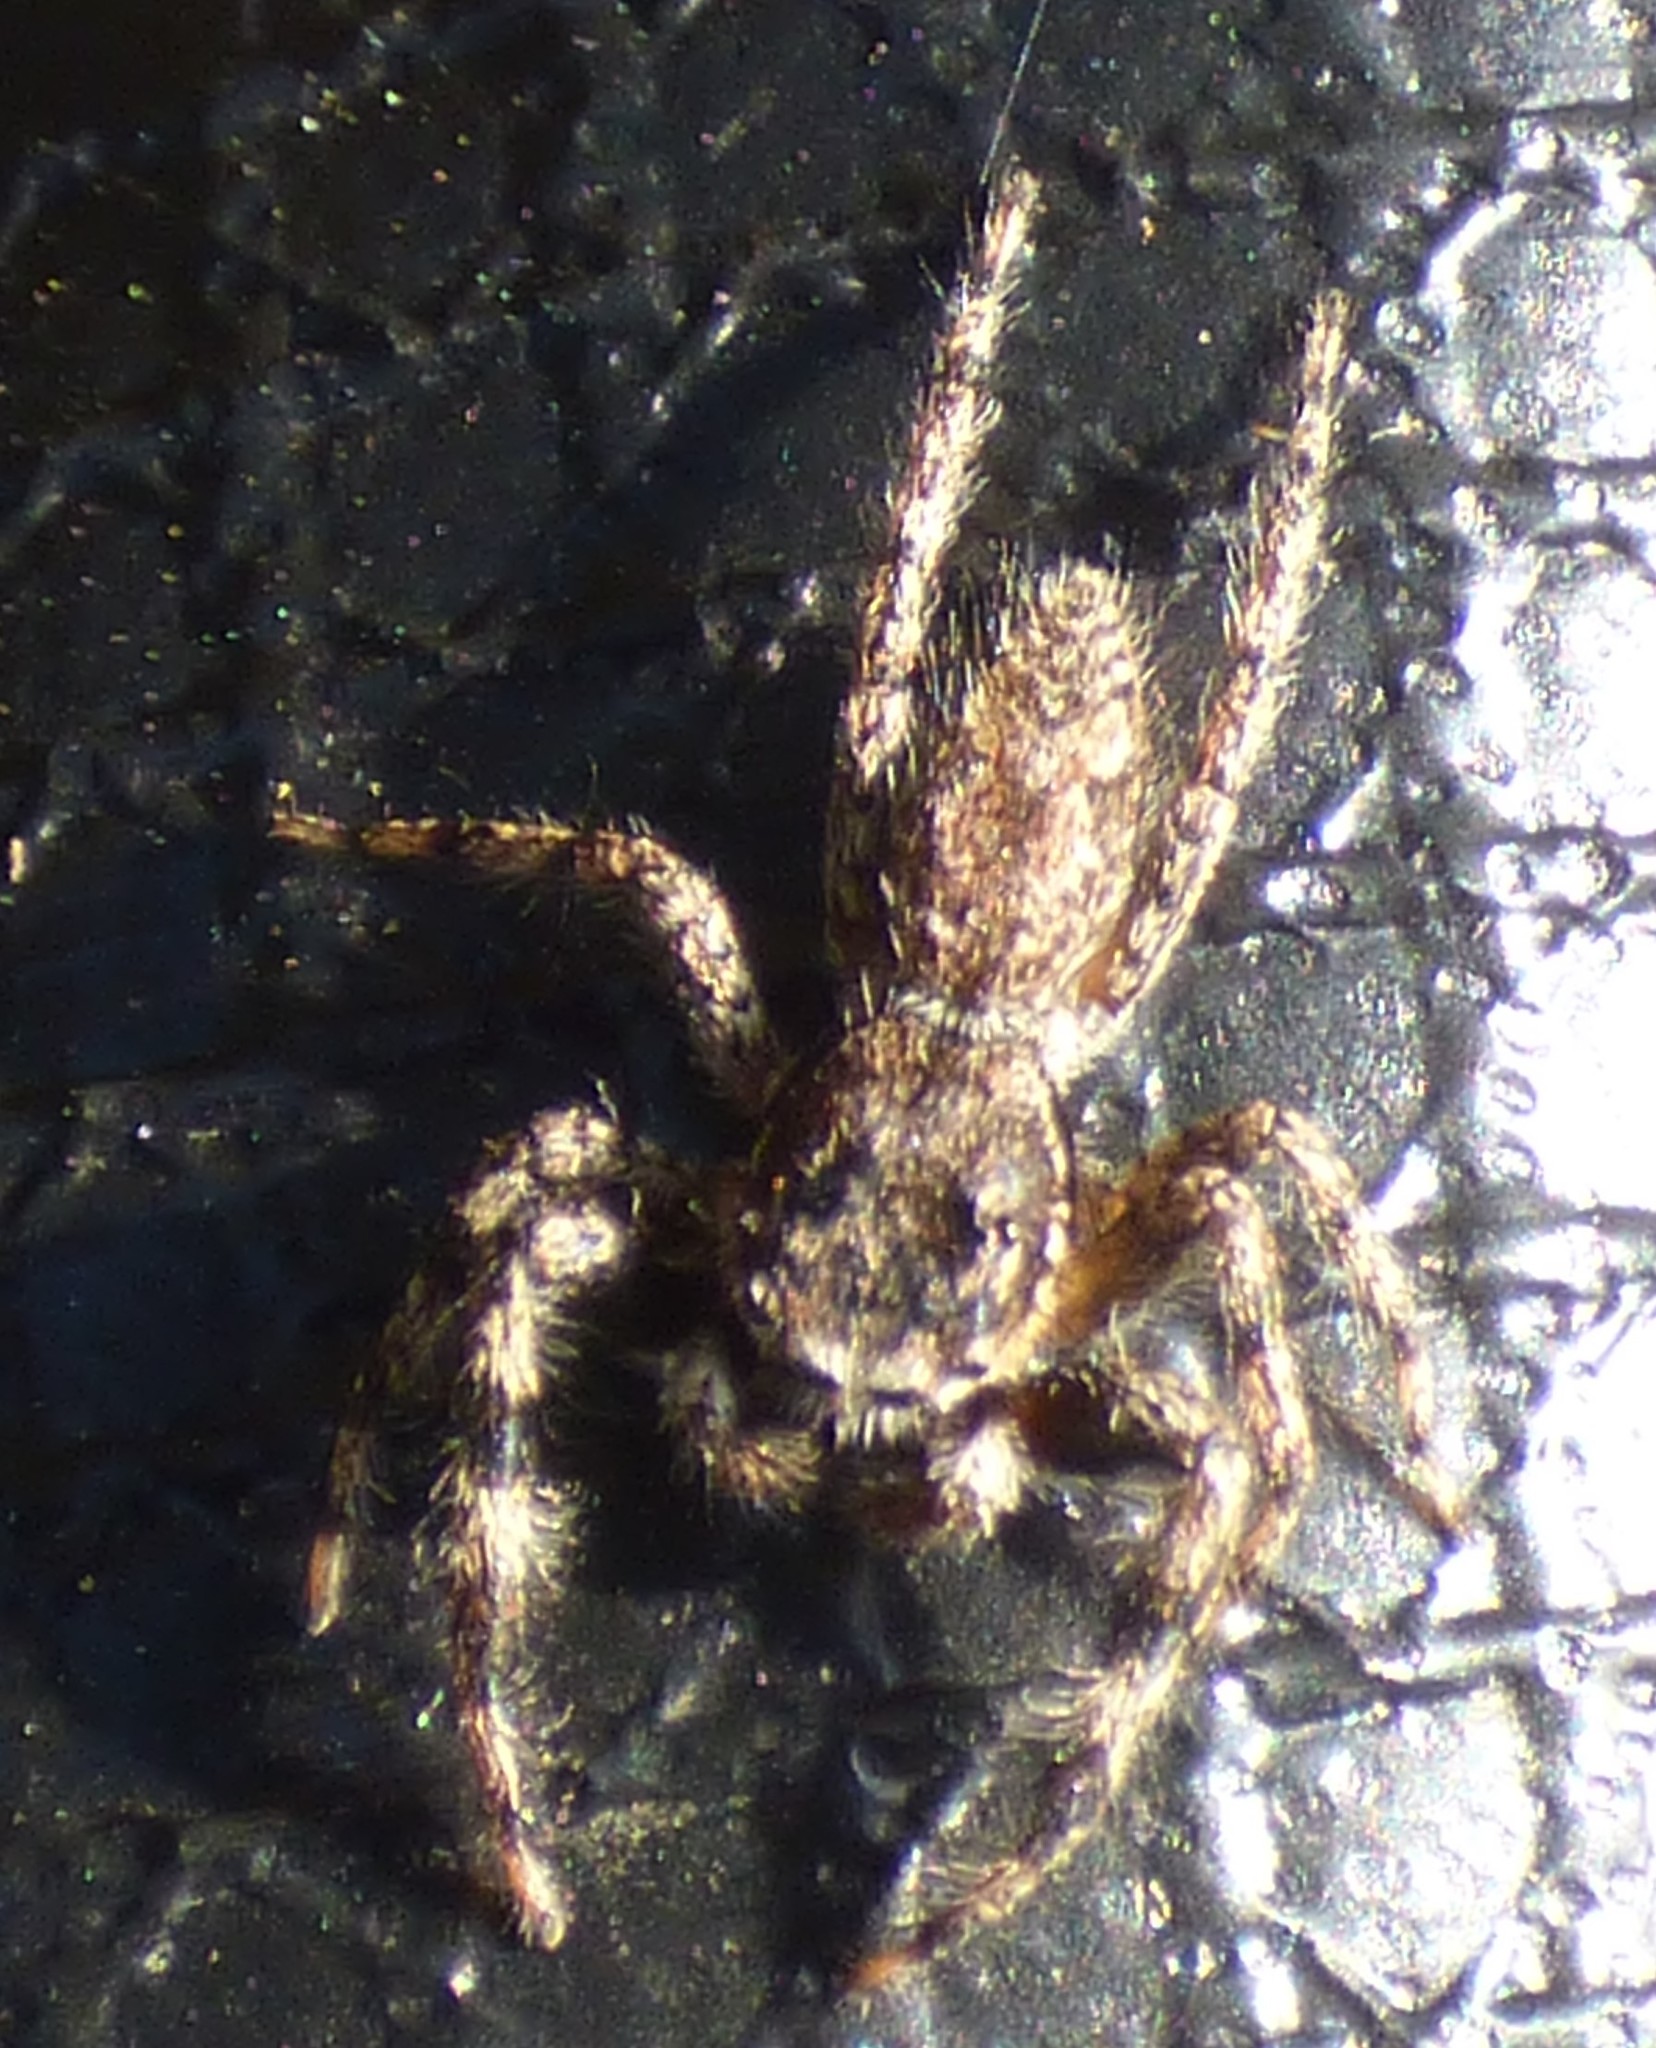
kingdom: Animalia
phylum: Arthropoda
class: Arachnida
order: Araneae
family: Salticidae
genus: Platycryptus
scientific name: Platycryptus undatus
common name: Tan jumping spider
